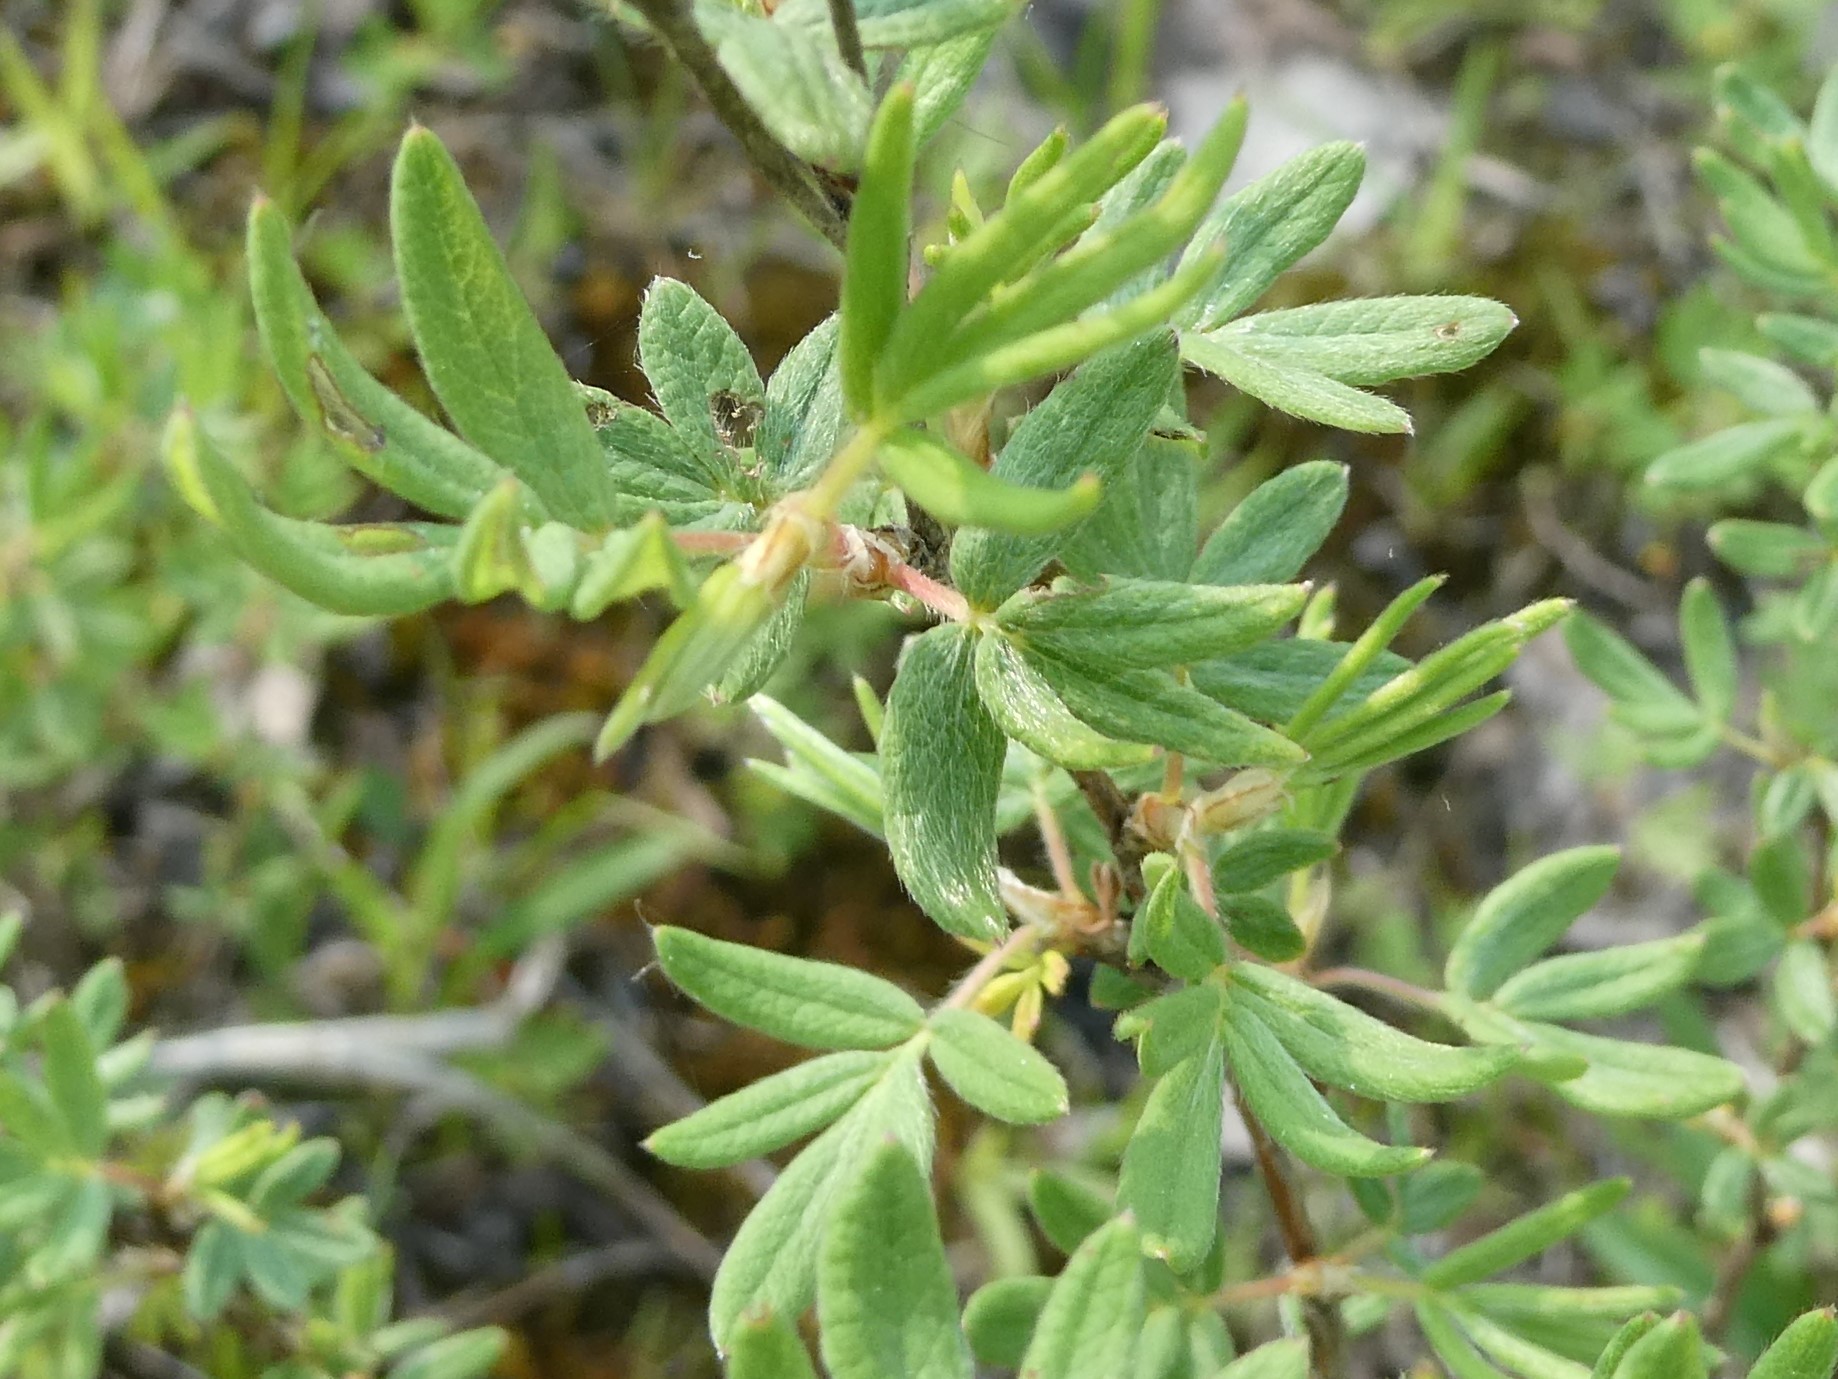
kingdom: Plantae
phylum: Tracheophyta
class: Magnoliopsida
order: Rosales
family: Rosaceae
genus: Dasiphora
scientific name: Dasiphora fruticosa
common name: Shrubby cinquefoil
